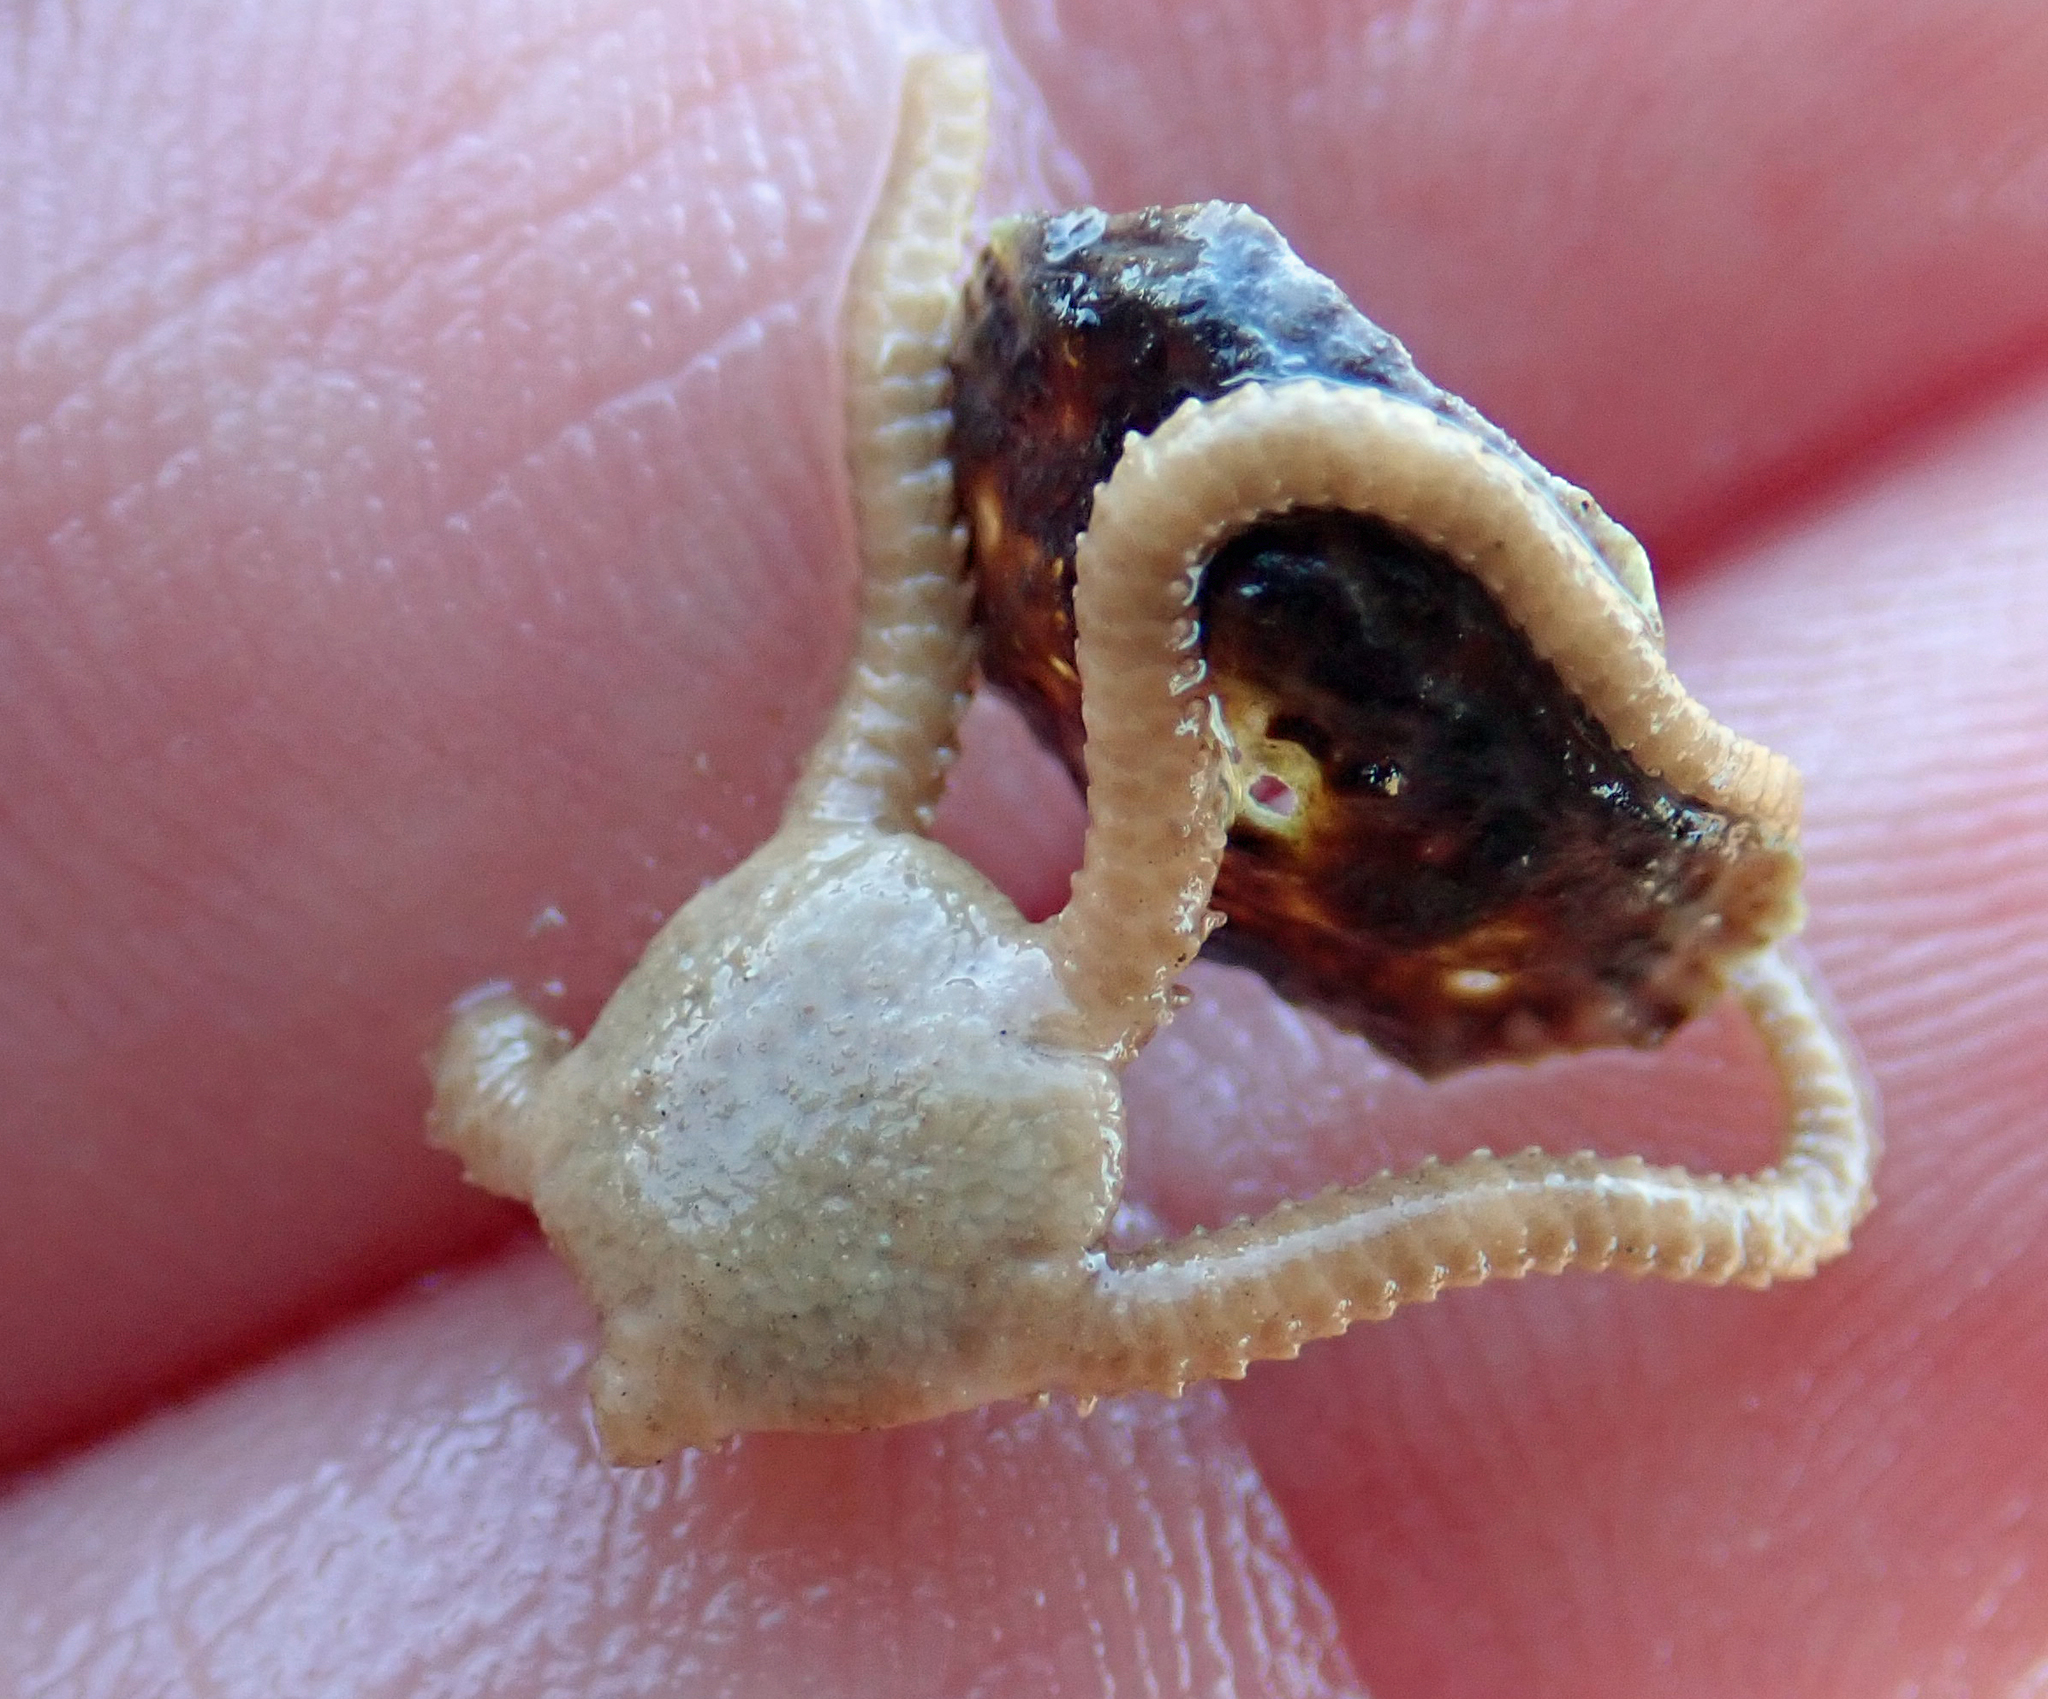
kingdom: Animalia
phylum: Echinodermata
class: Ophiuroidea
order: Amphilepidida
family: Hemieuryalidae
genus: Ophioplocus
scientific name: Ophioplocus huttoni
